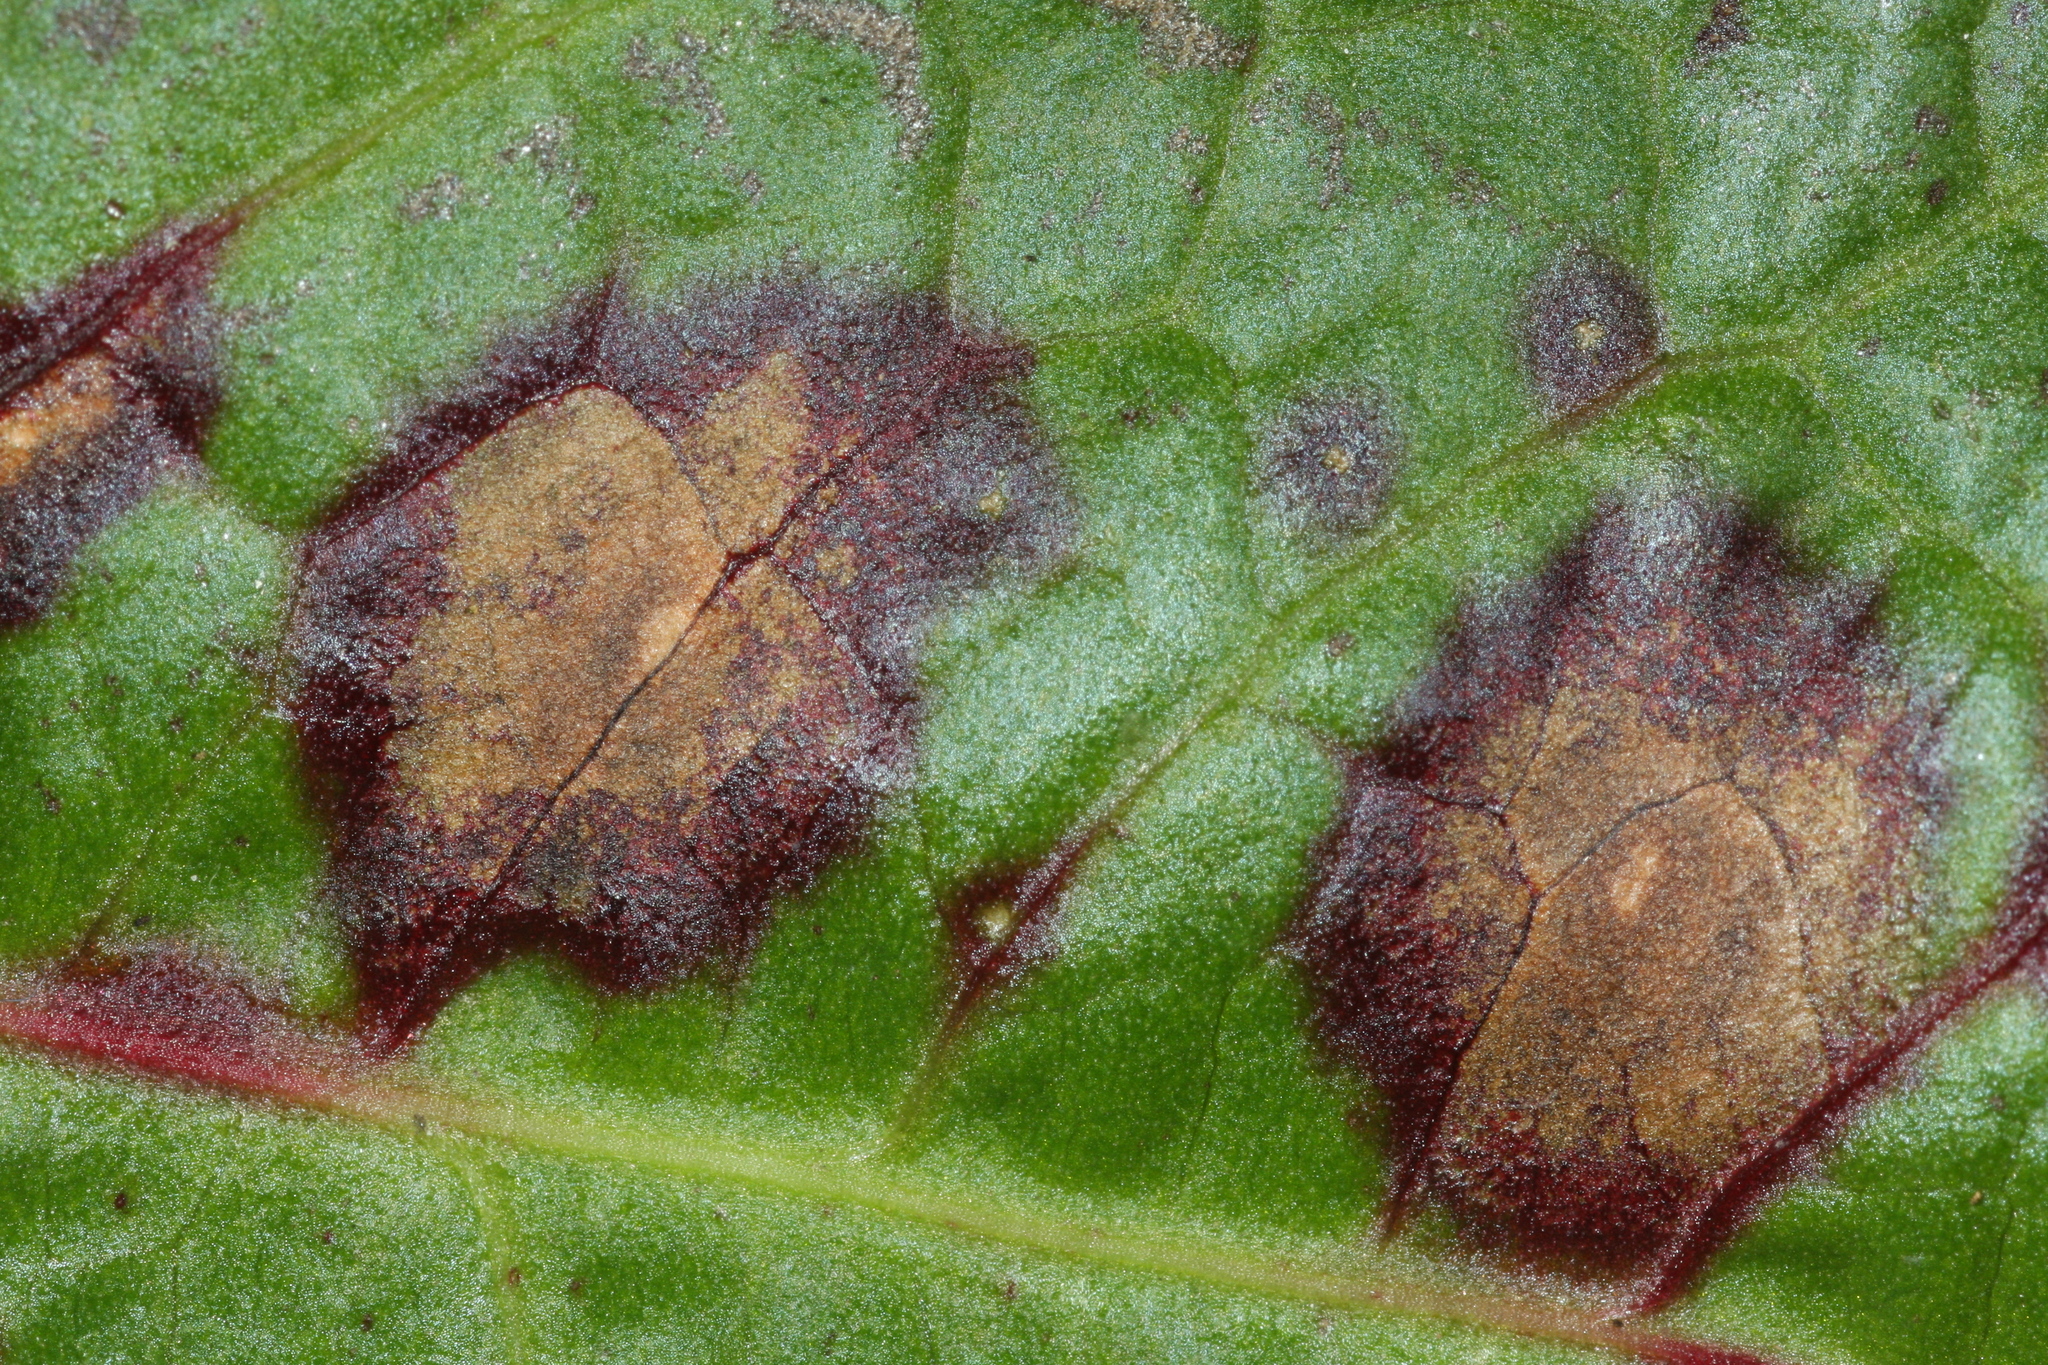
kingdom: Fungi
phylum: Ascomycota
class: Dothideomycetes
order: Mycosphaerellales
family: Mycosphaerellaceae
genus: Ramularia
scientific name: Ramularia rubella
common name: Red dock spot
